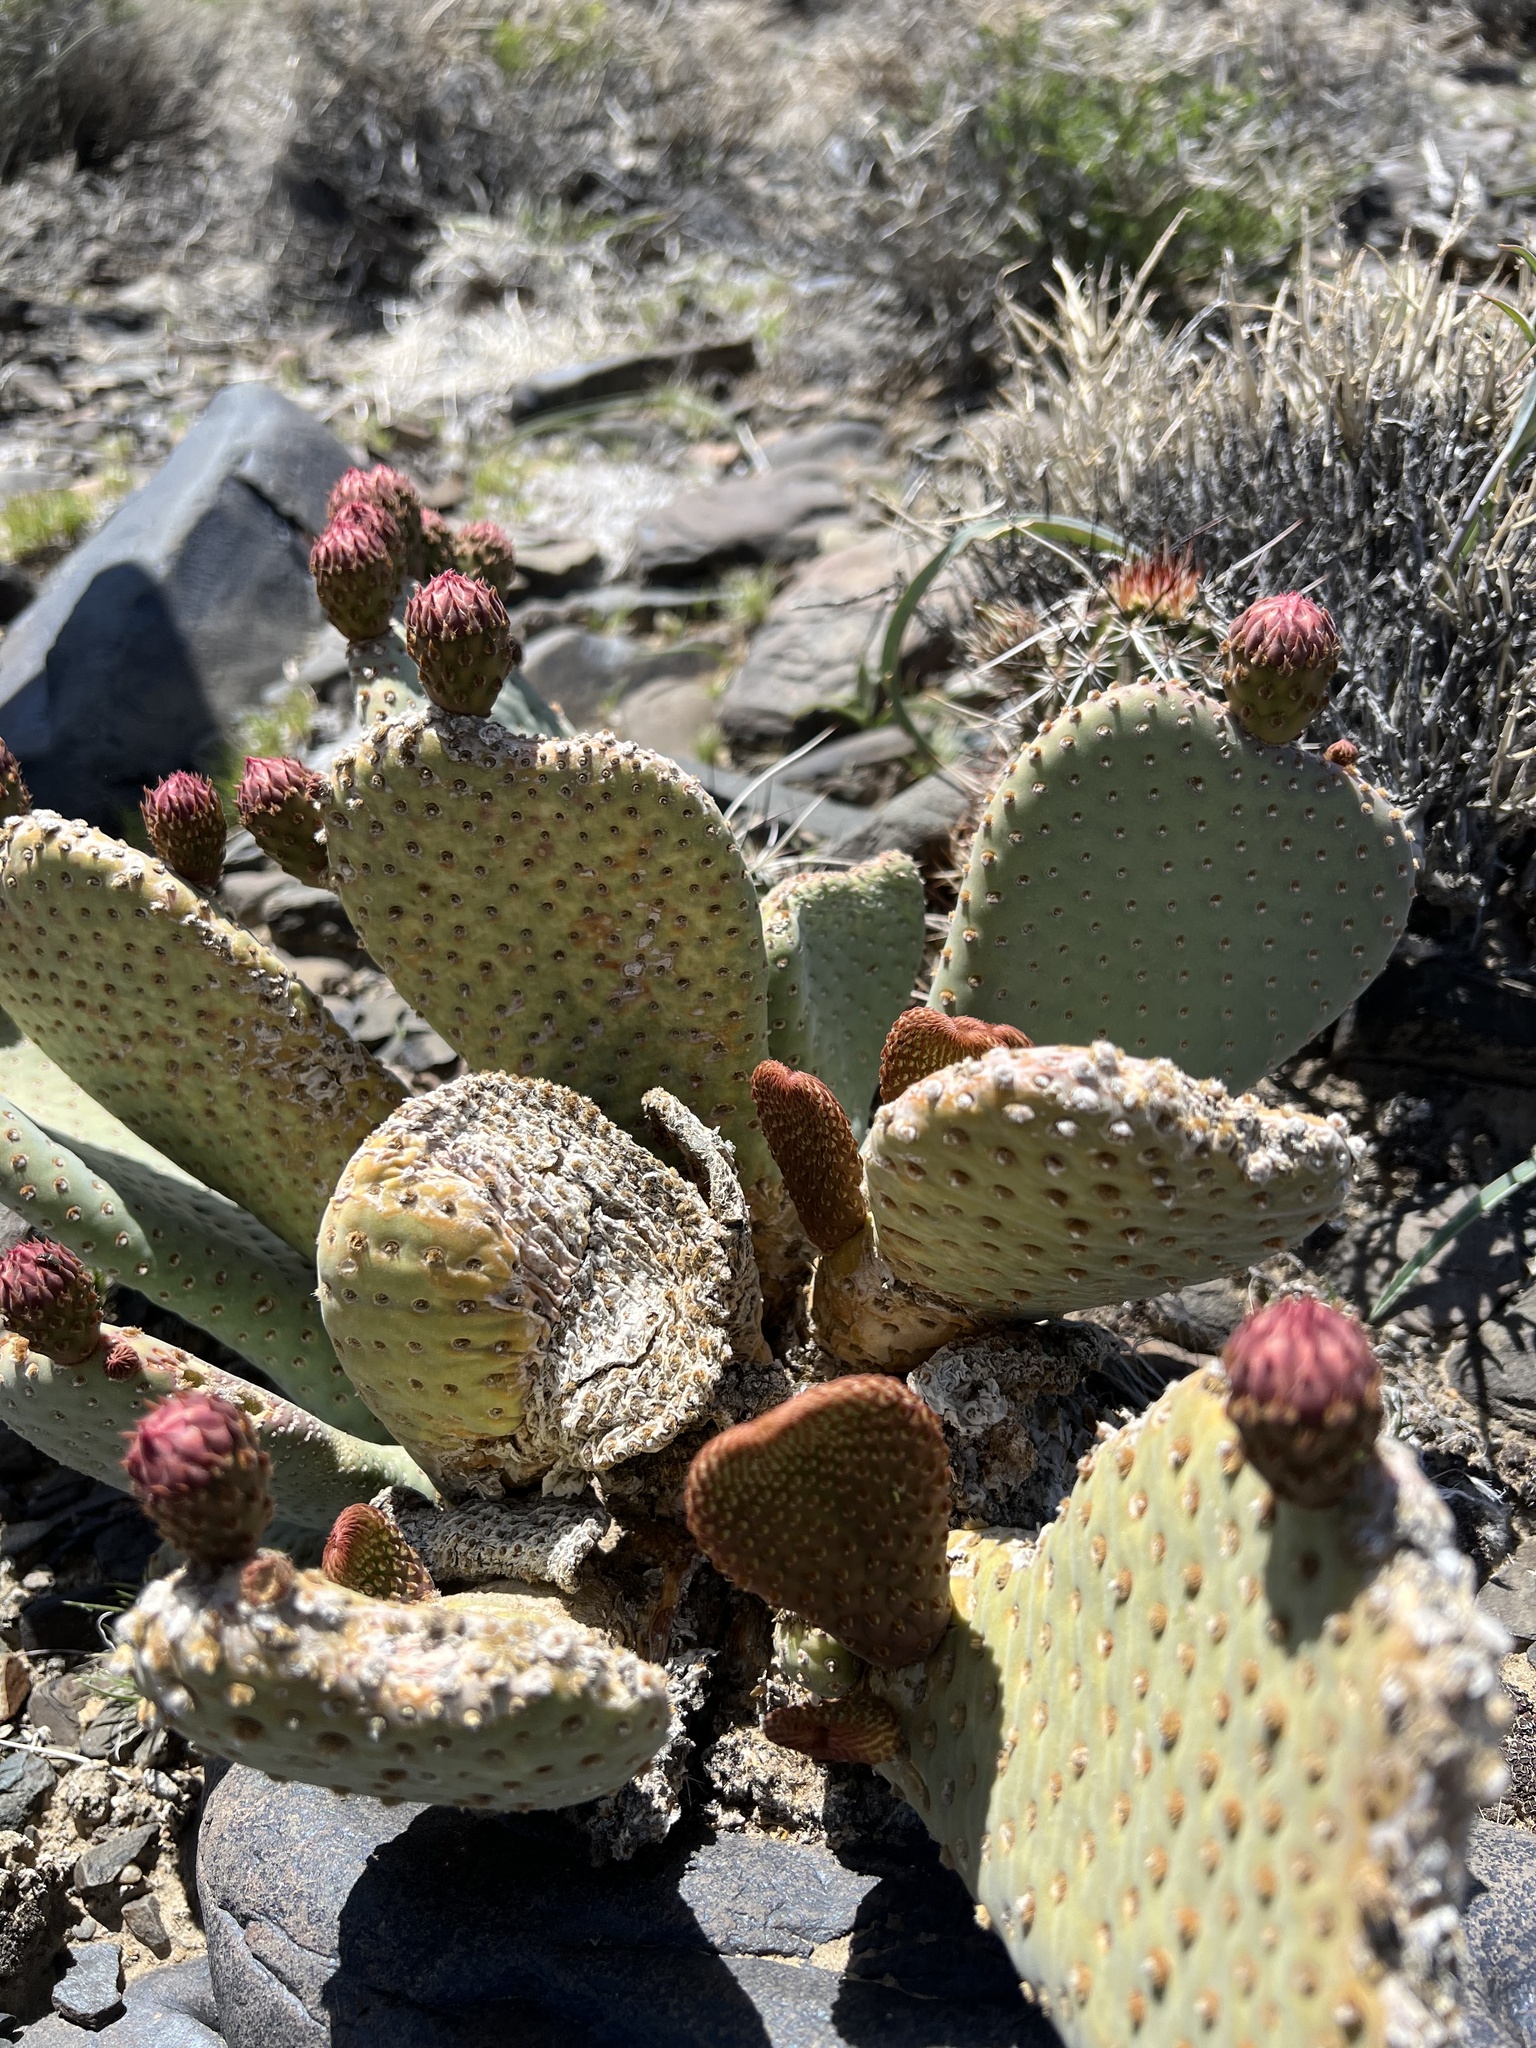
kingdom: Plantae
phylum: Tracheophyta
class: Magnoliopsida
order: Caryophyllales
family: Cactaceae
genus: Opuntia
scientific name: Opuntia basilaris
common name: Beavertail prickly-pear
